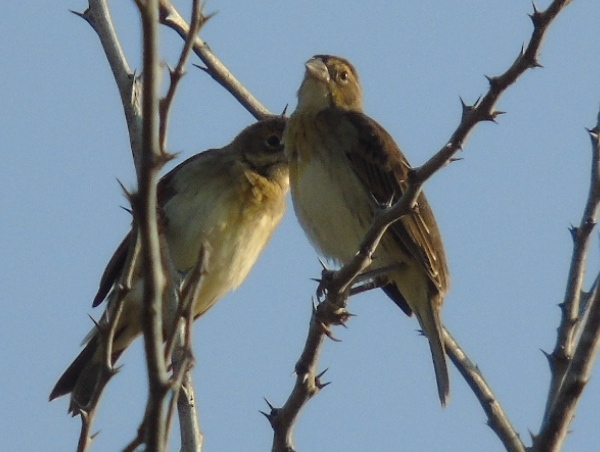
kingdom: Animalia
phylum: Chordata
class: Aves
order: Passeriformes
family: Cardinalidae
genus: Spiza
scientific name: Spiza americana
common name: Dickcissel
